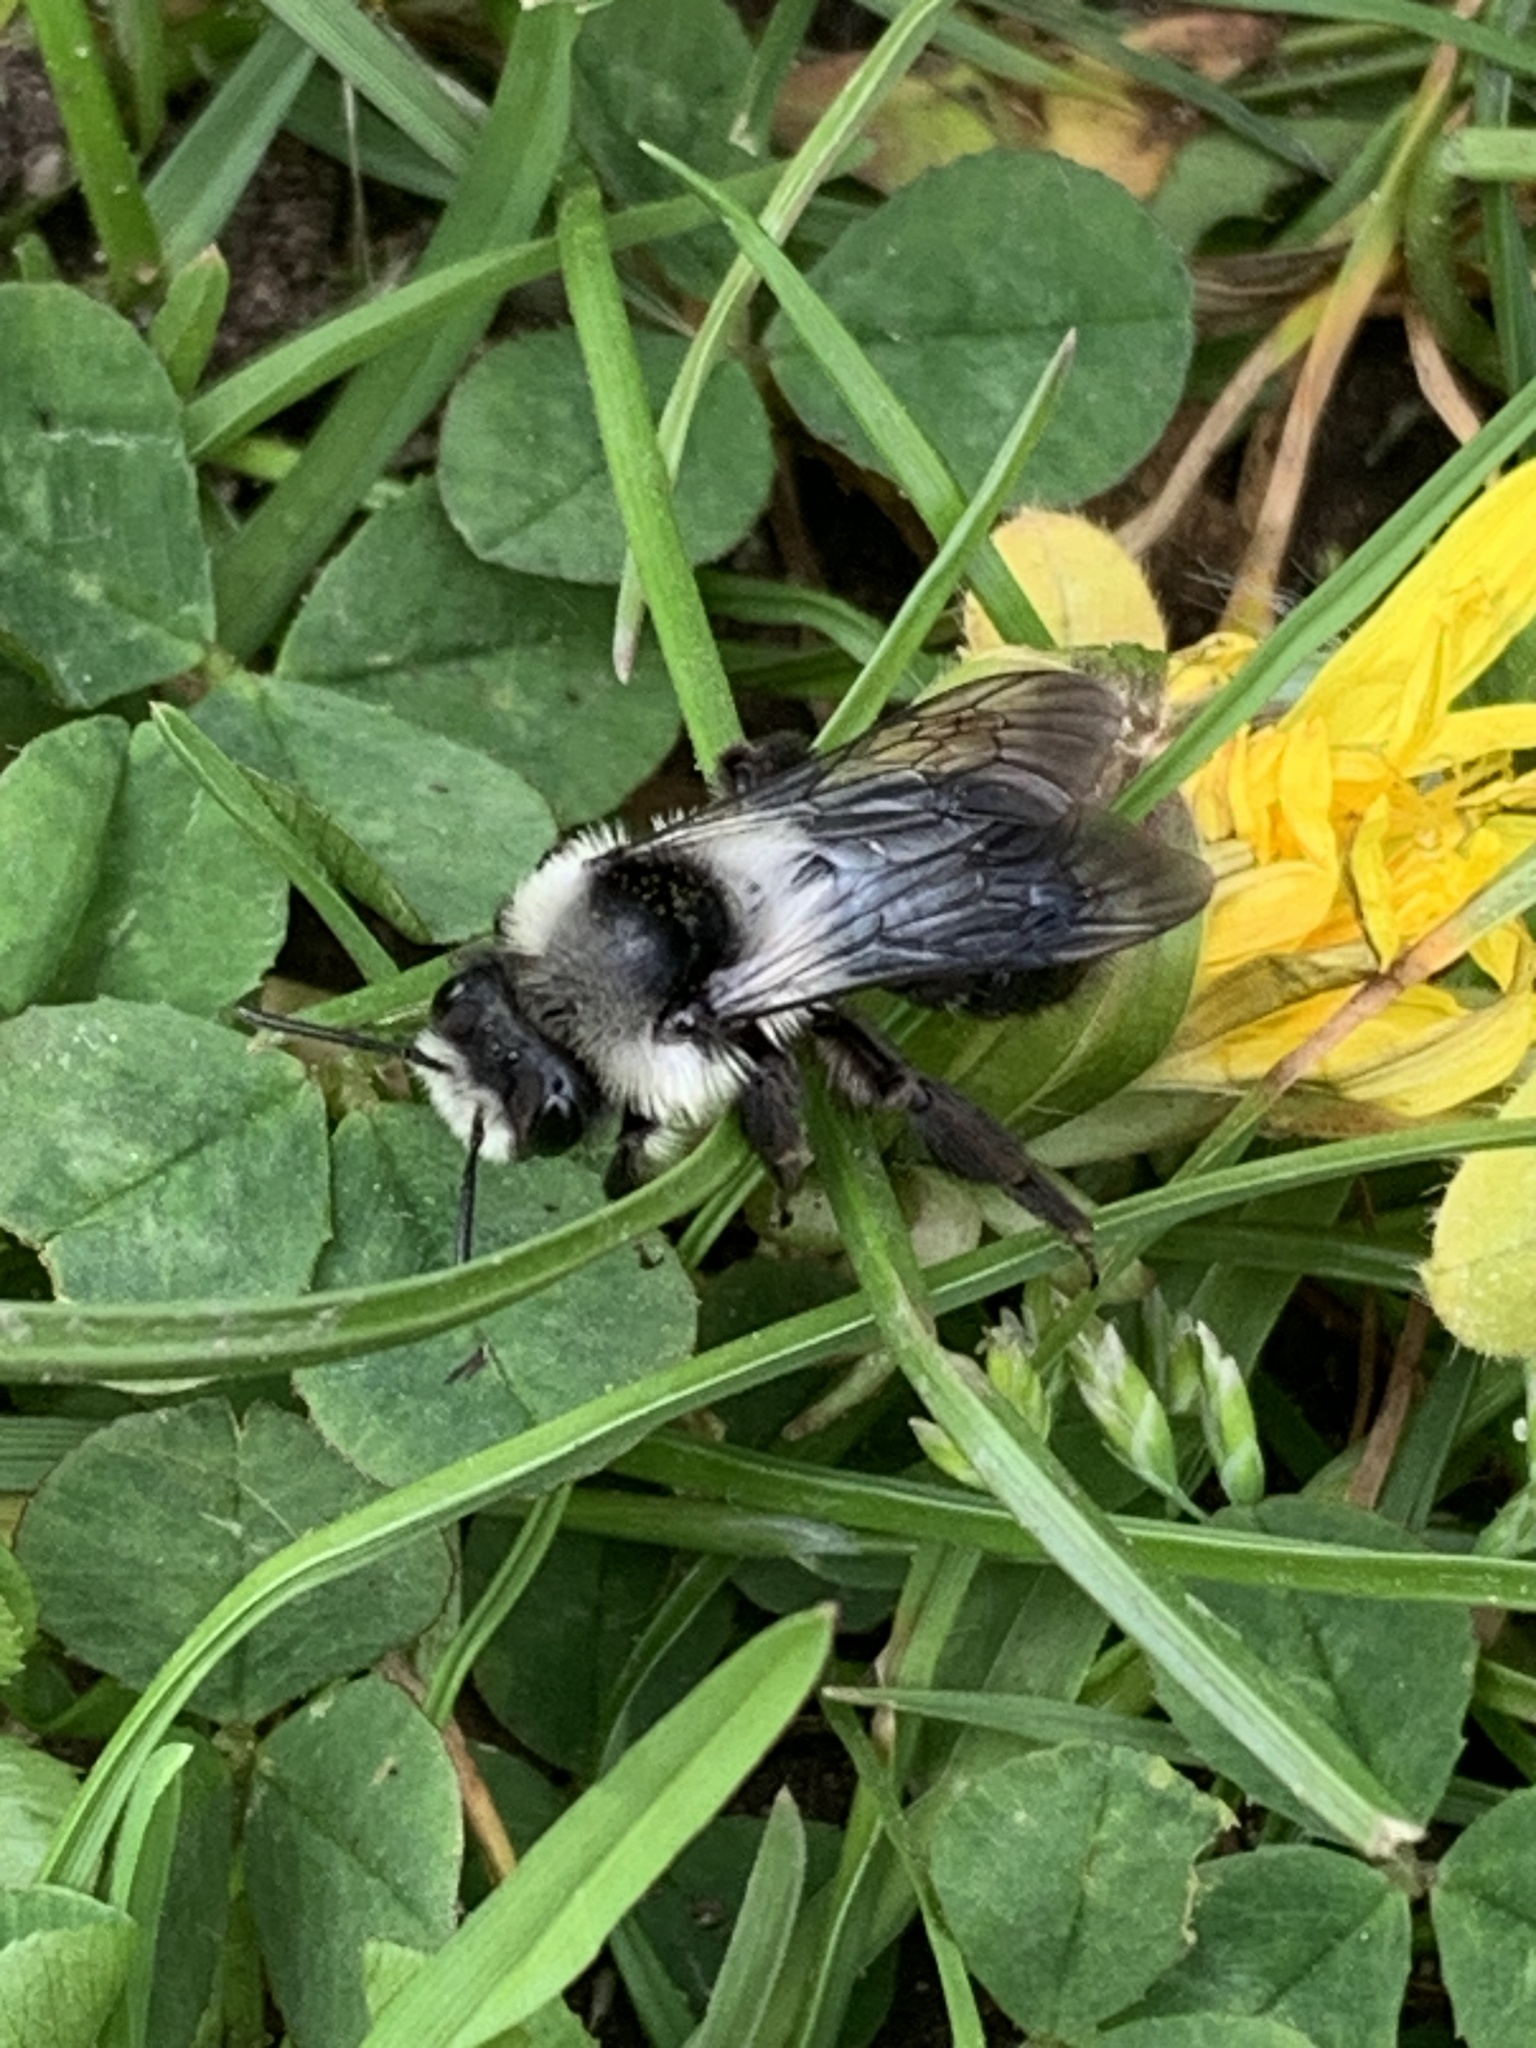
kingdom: Animalia
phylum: Arthropoda
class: Insecta
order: Hymenoptera
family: Andrenidae
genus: Andrena
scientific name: Andrena cineraria
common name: Ashy mining bee
